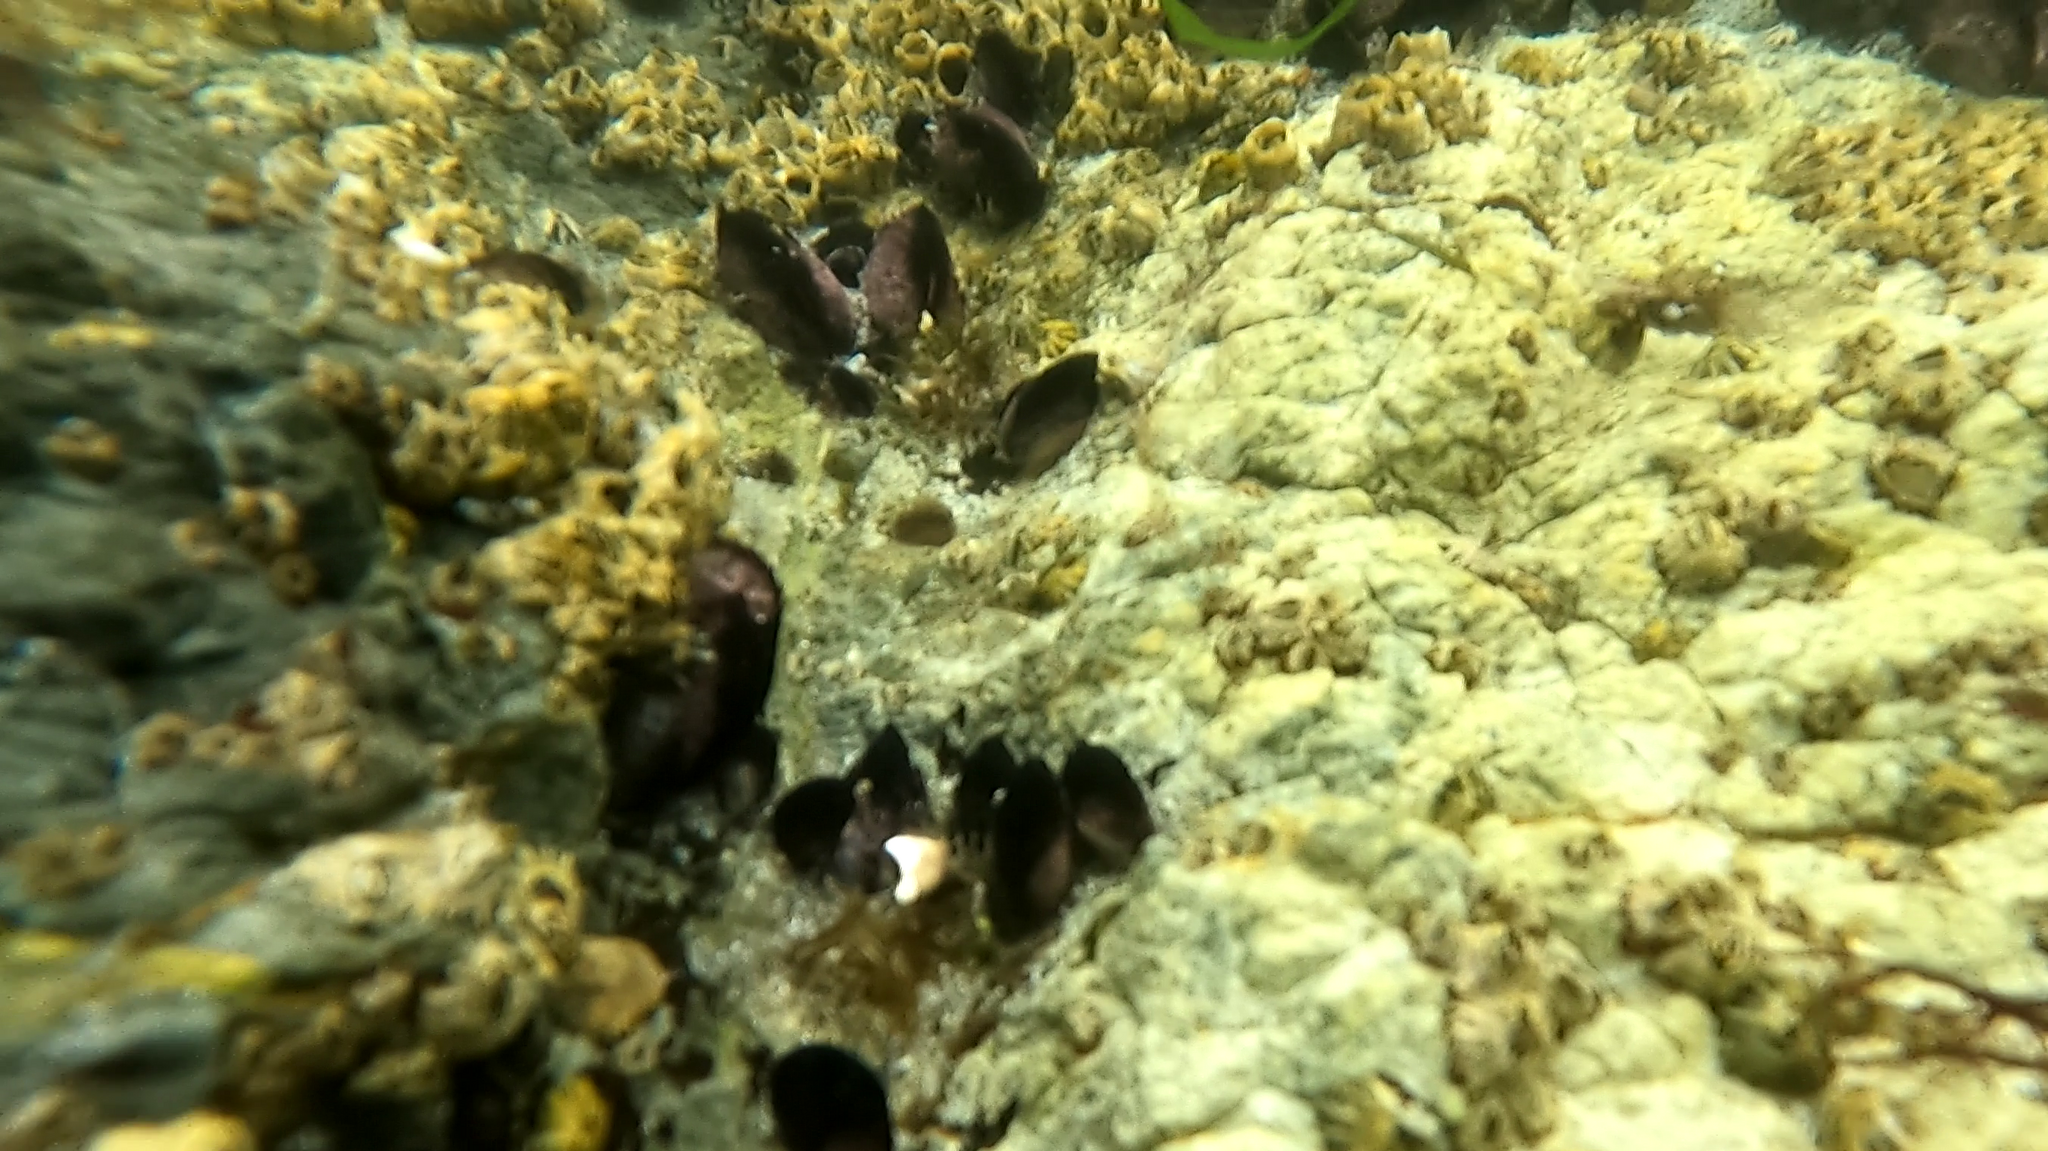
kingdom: Animalia
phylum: Mollusca
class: Bivalvia
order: Mytilida
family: Mytilidae
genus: Perumytilus
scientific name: Perumytilus purpuratus
